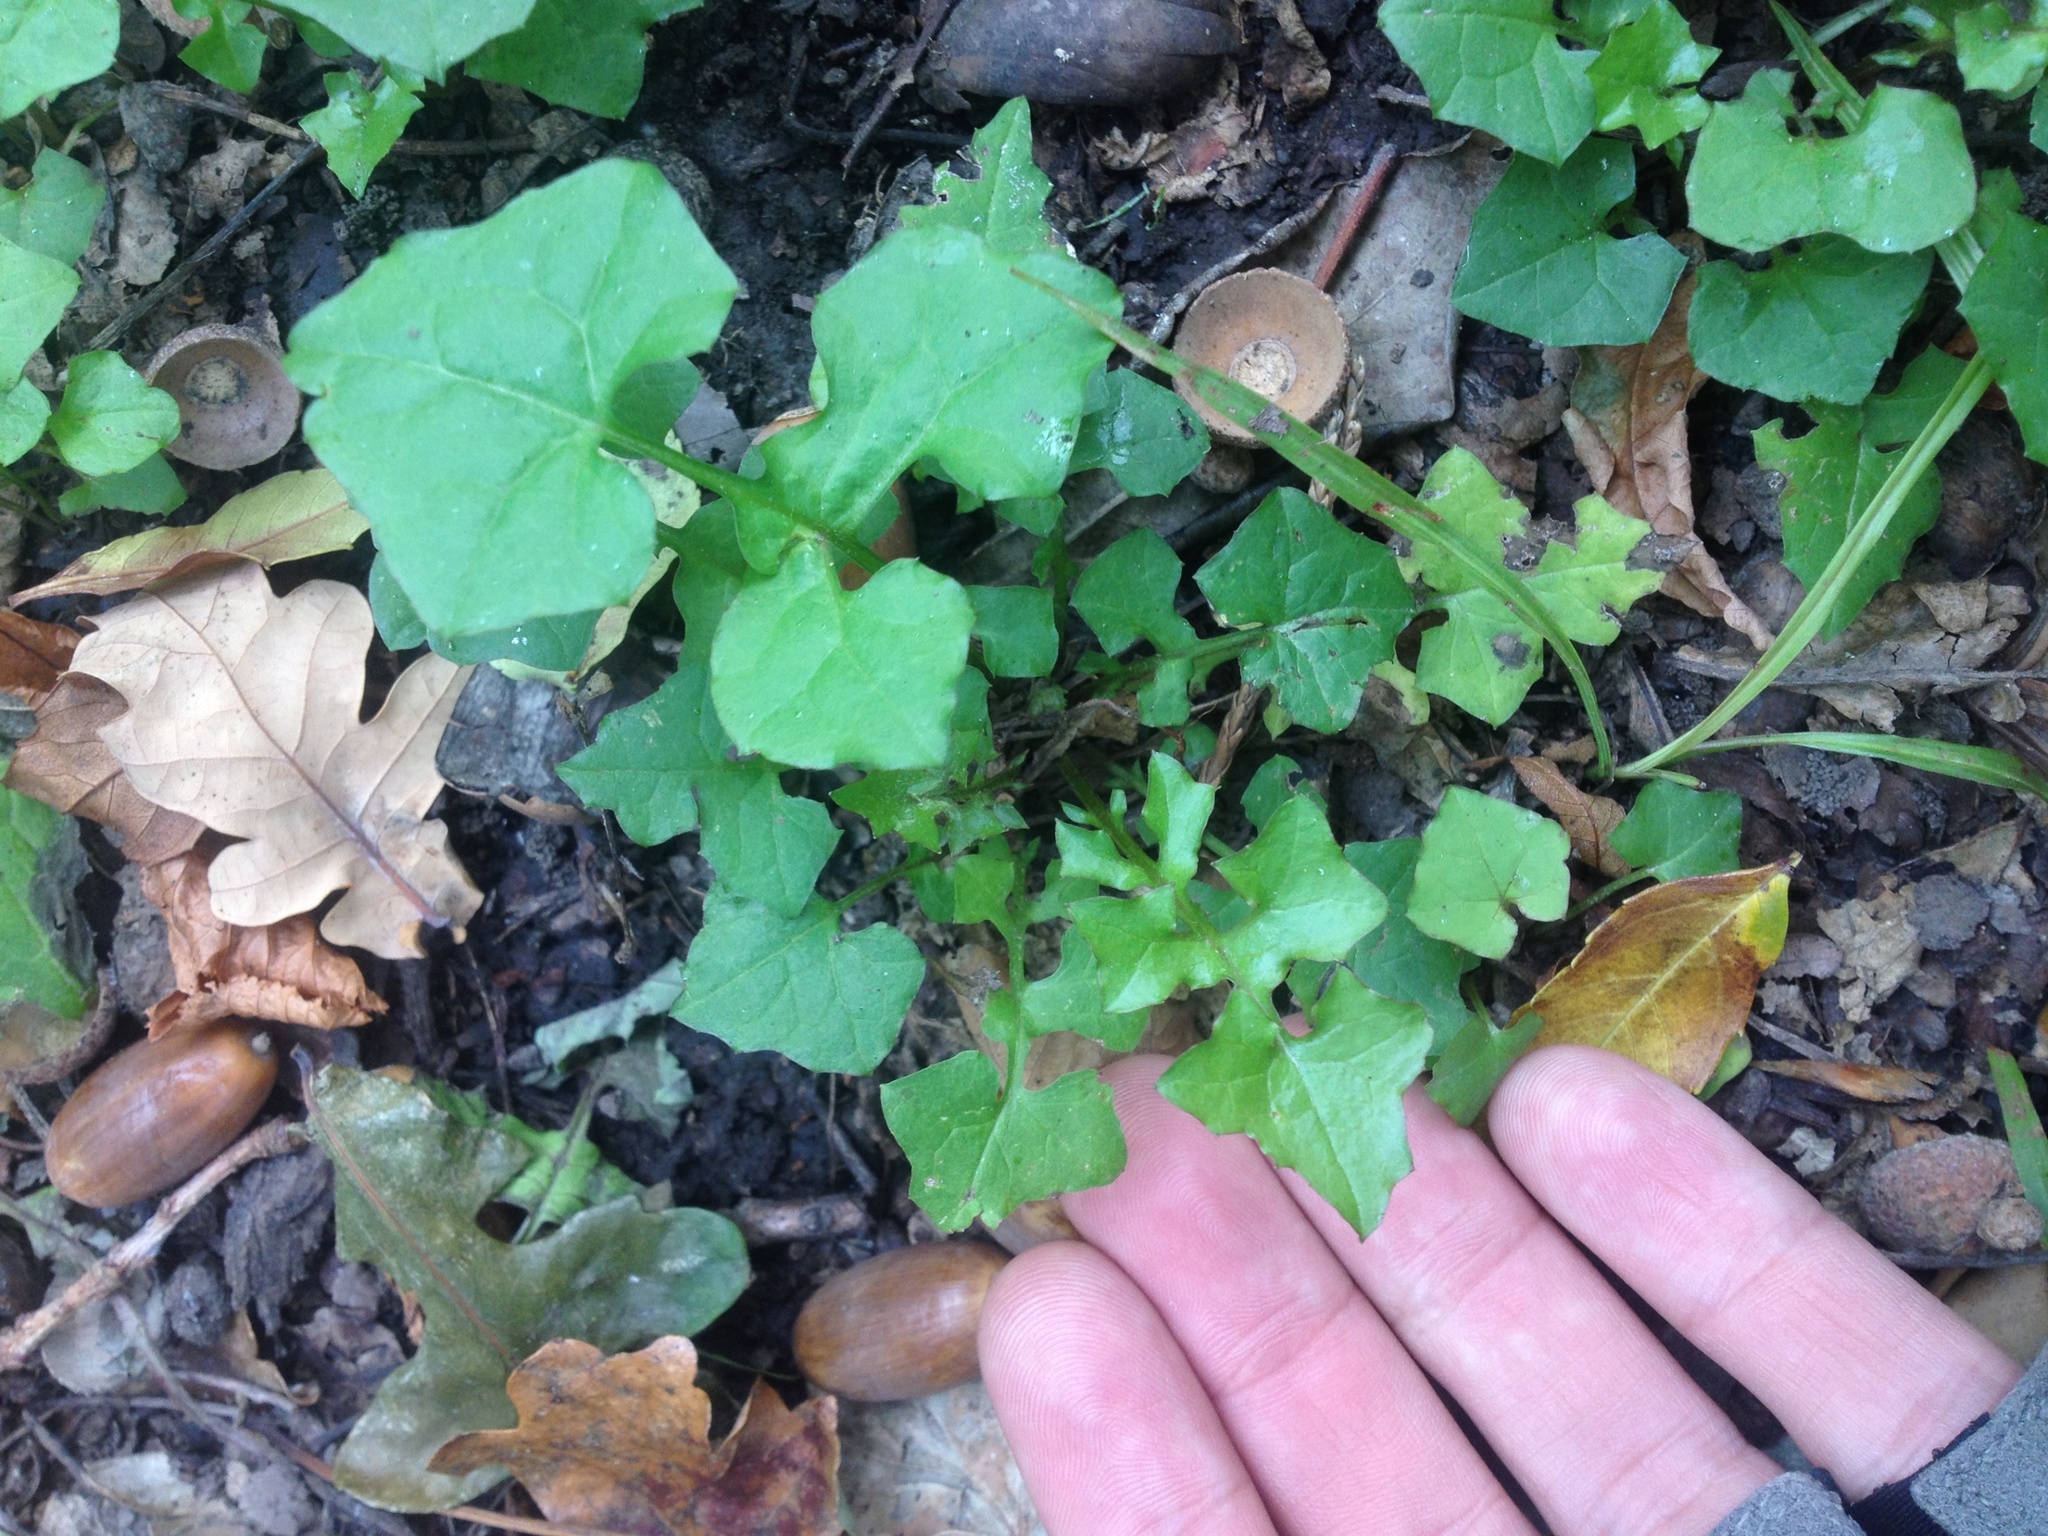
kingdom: Plantae
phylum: Tracheophyta
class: Magnoliopsida
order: Asterales
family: Asteraceae
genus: Mycelis
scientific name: Mycelis muralis
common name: Wall lettuce
